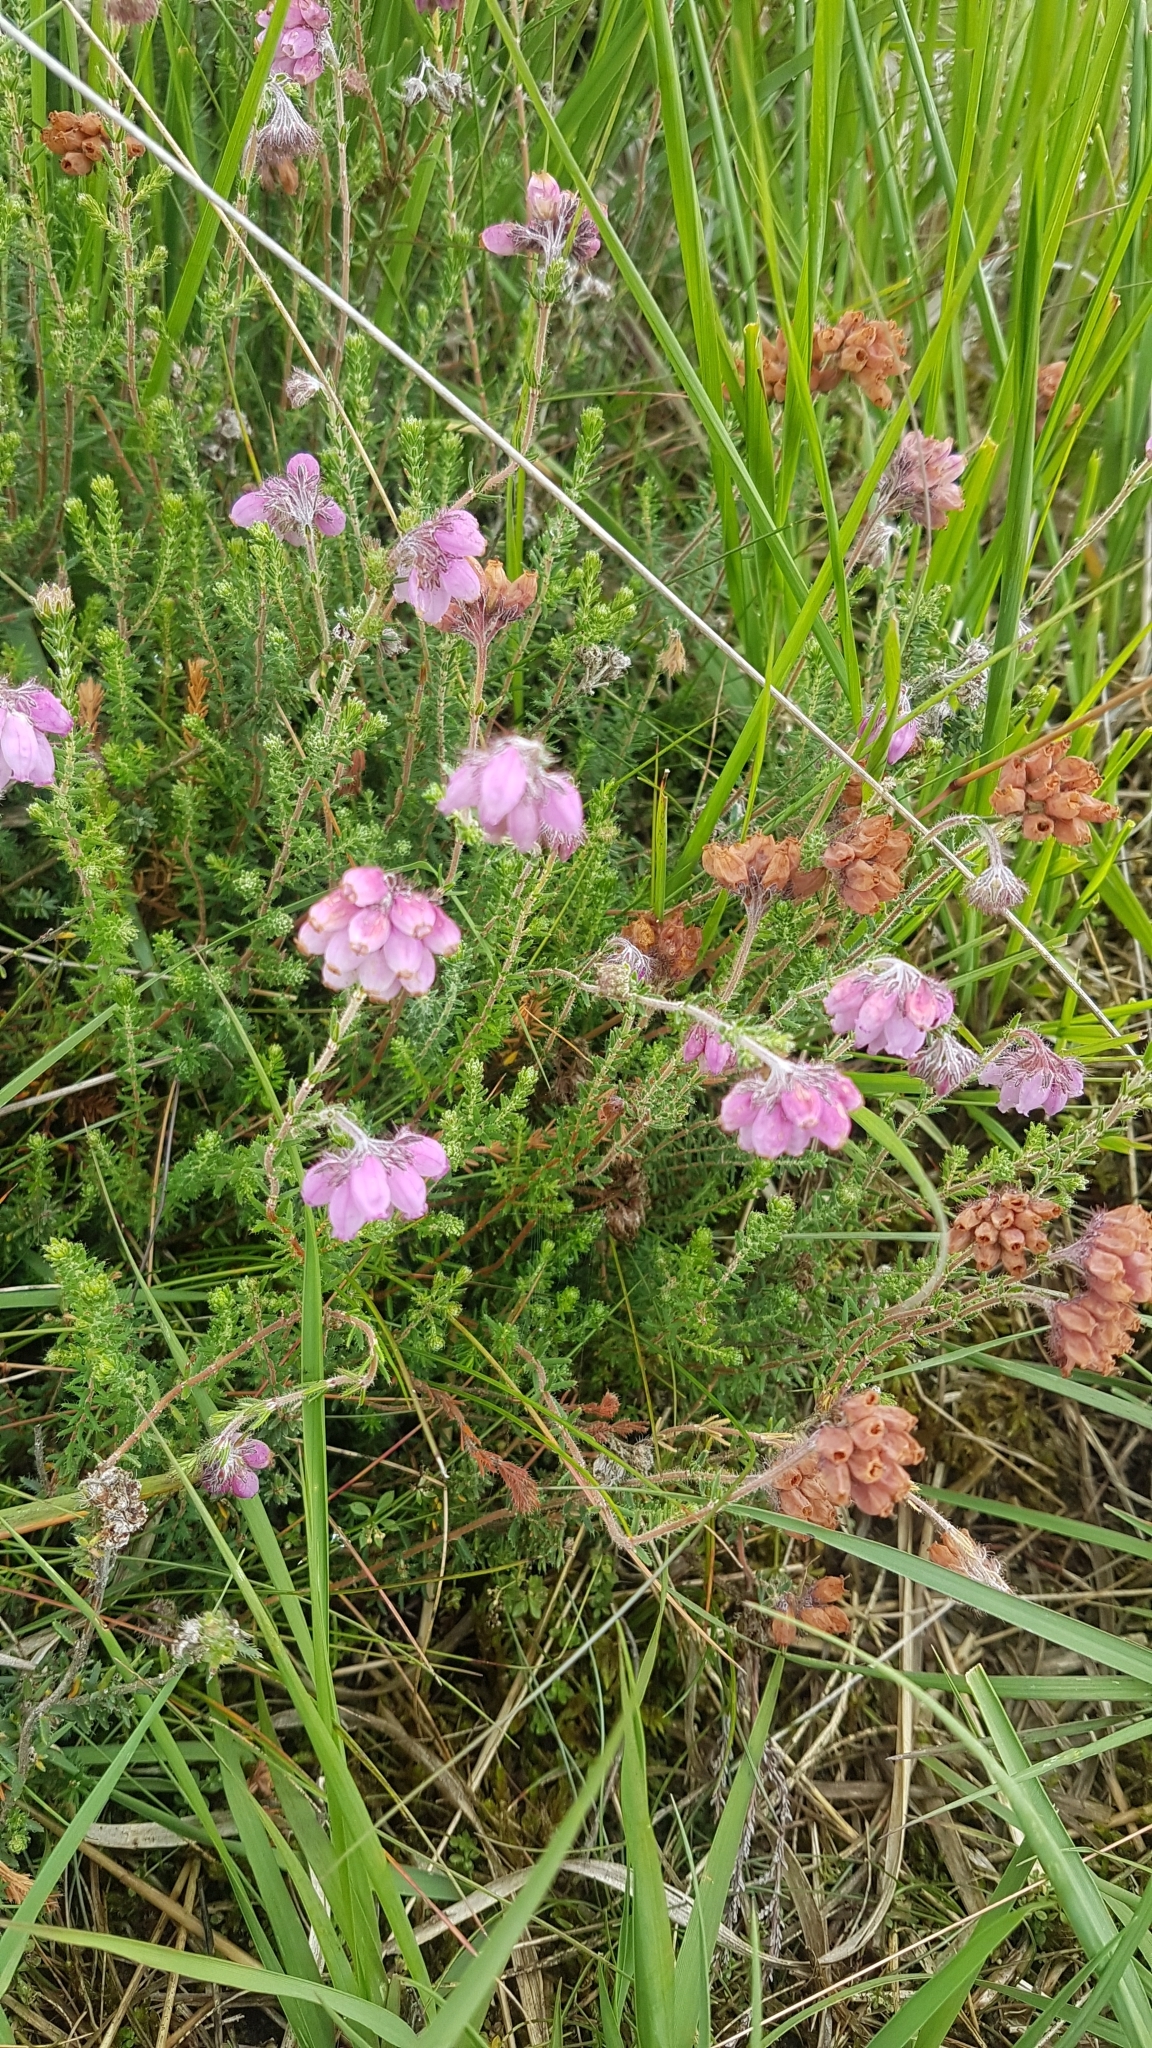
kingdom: Plantae
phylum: Tracheophyta
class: Magnoliopsida
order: Ericales
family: Ericaceae
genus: Erica
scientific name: Erica tetralix
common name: Cross-leaved heath
